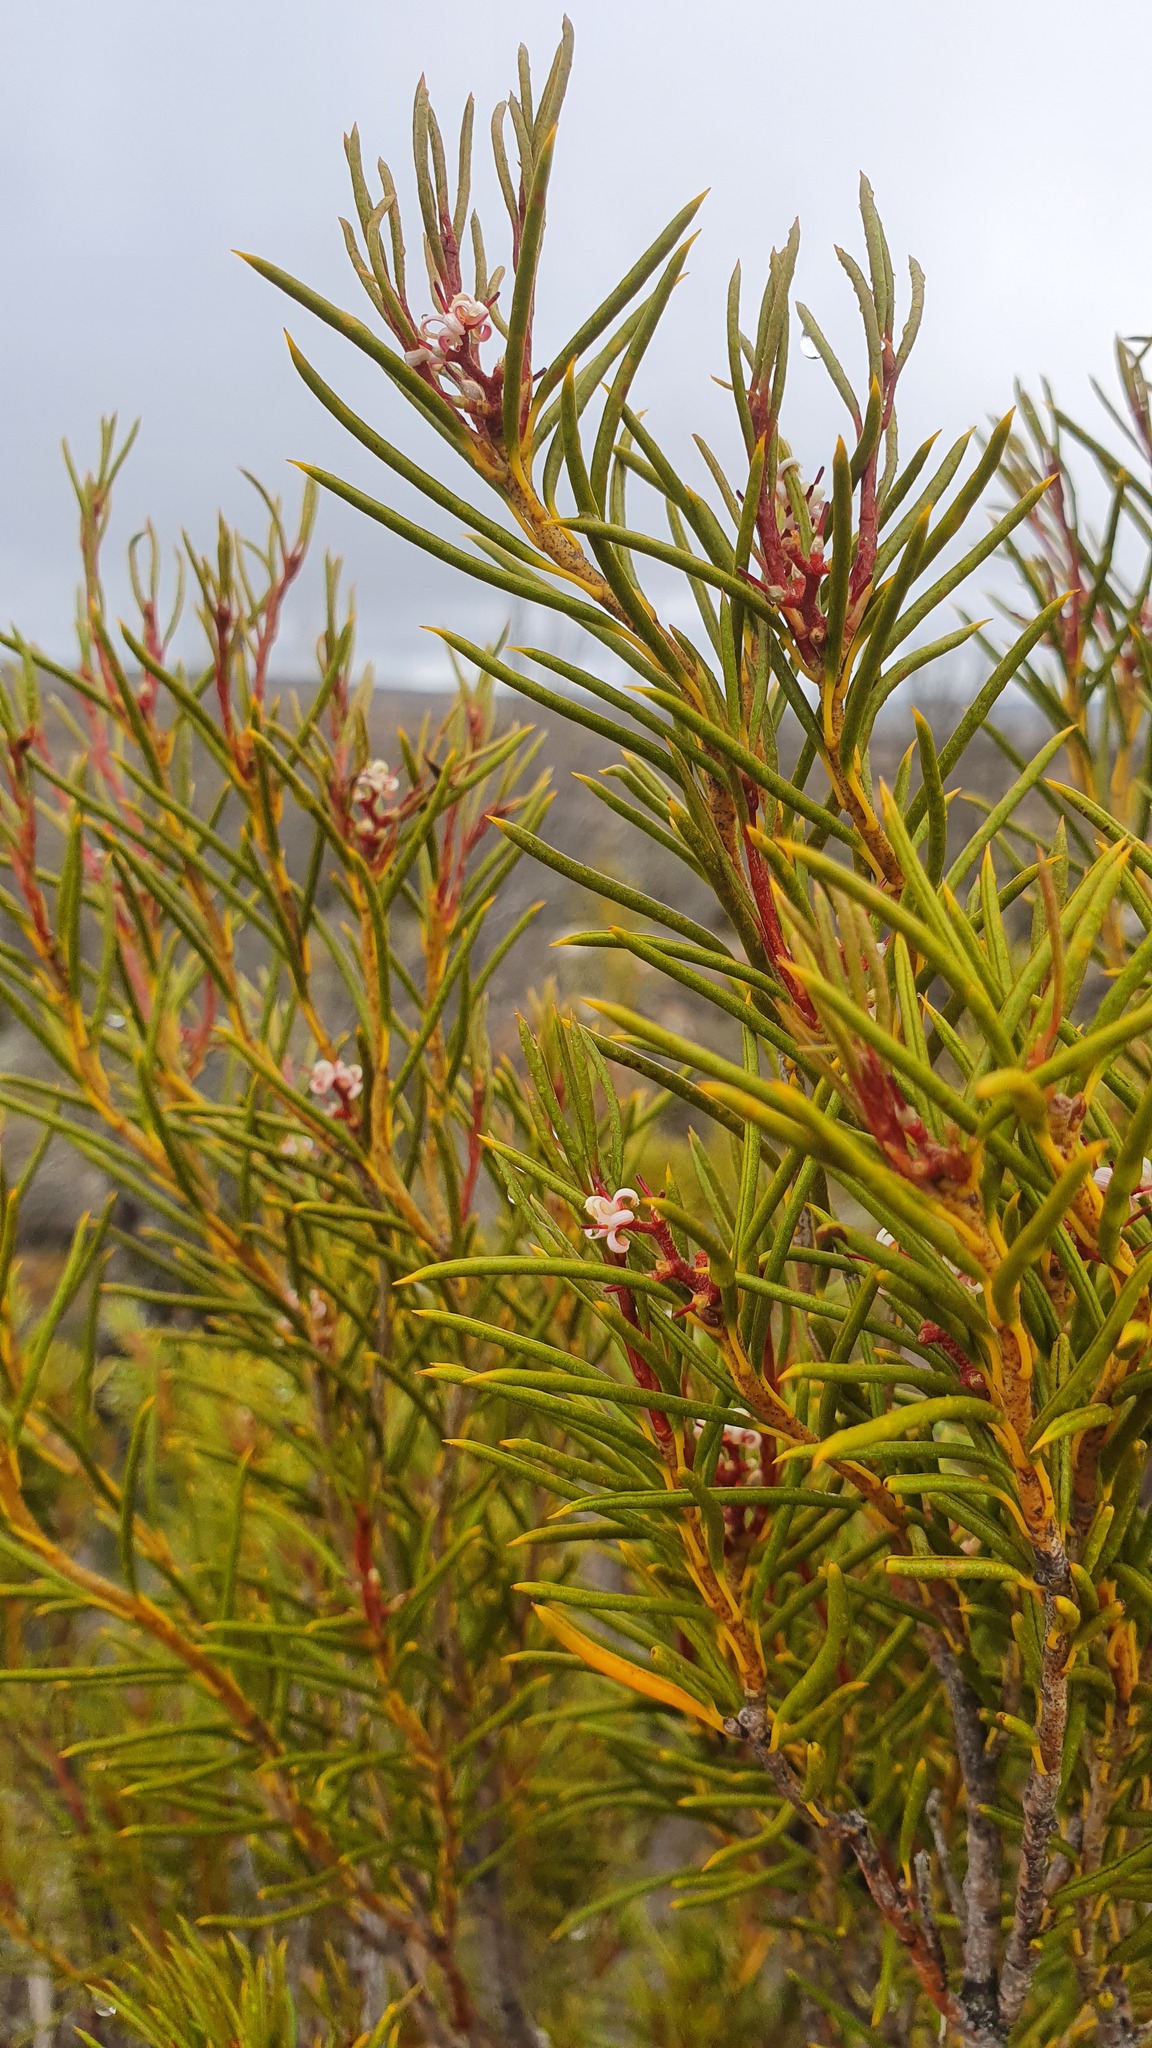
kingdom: Plantae
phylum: Tracheophyta
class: Magnoliopsida
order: Proteales
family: Proteaceae
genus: Orites
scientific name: Orites acicularis
